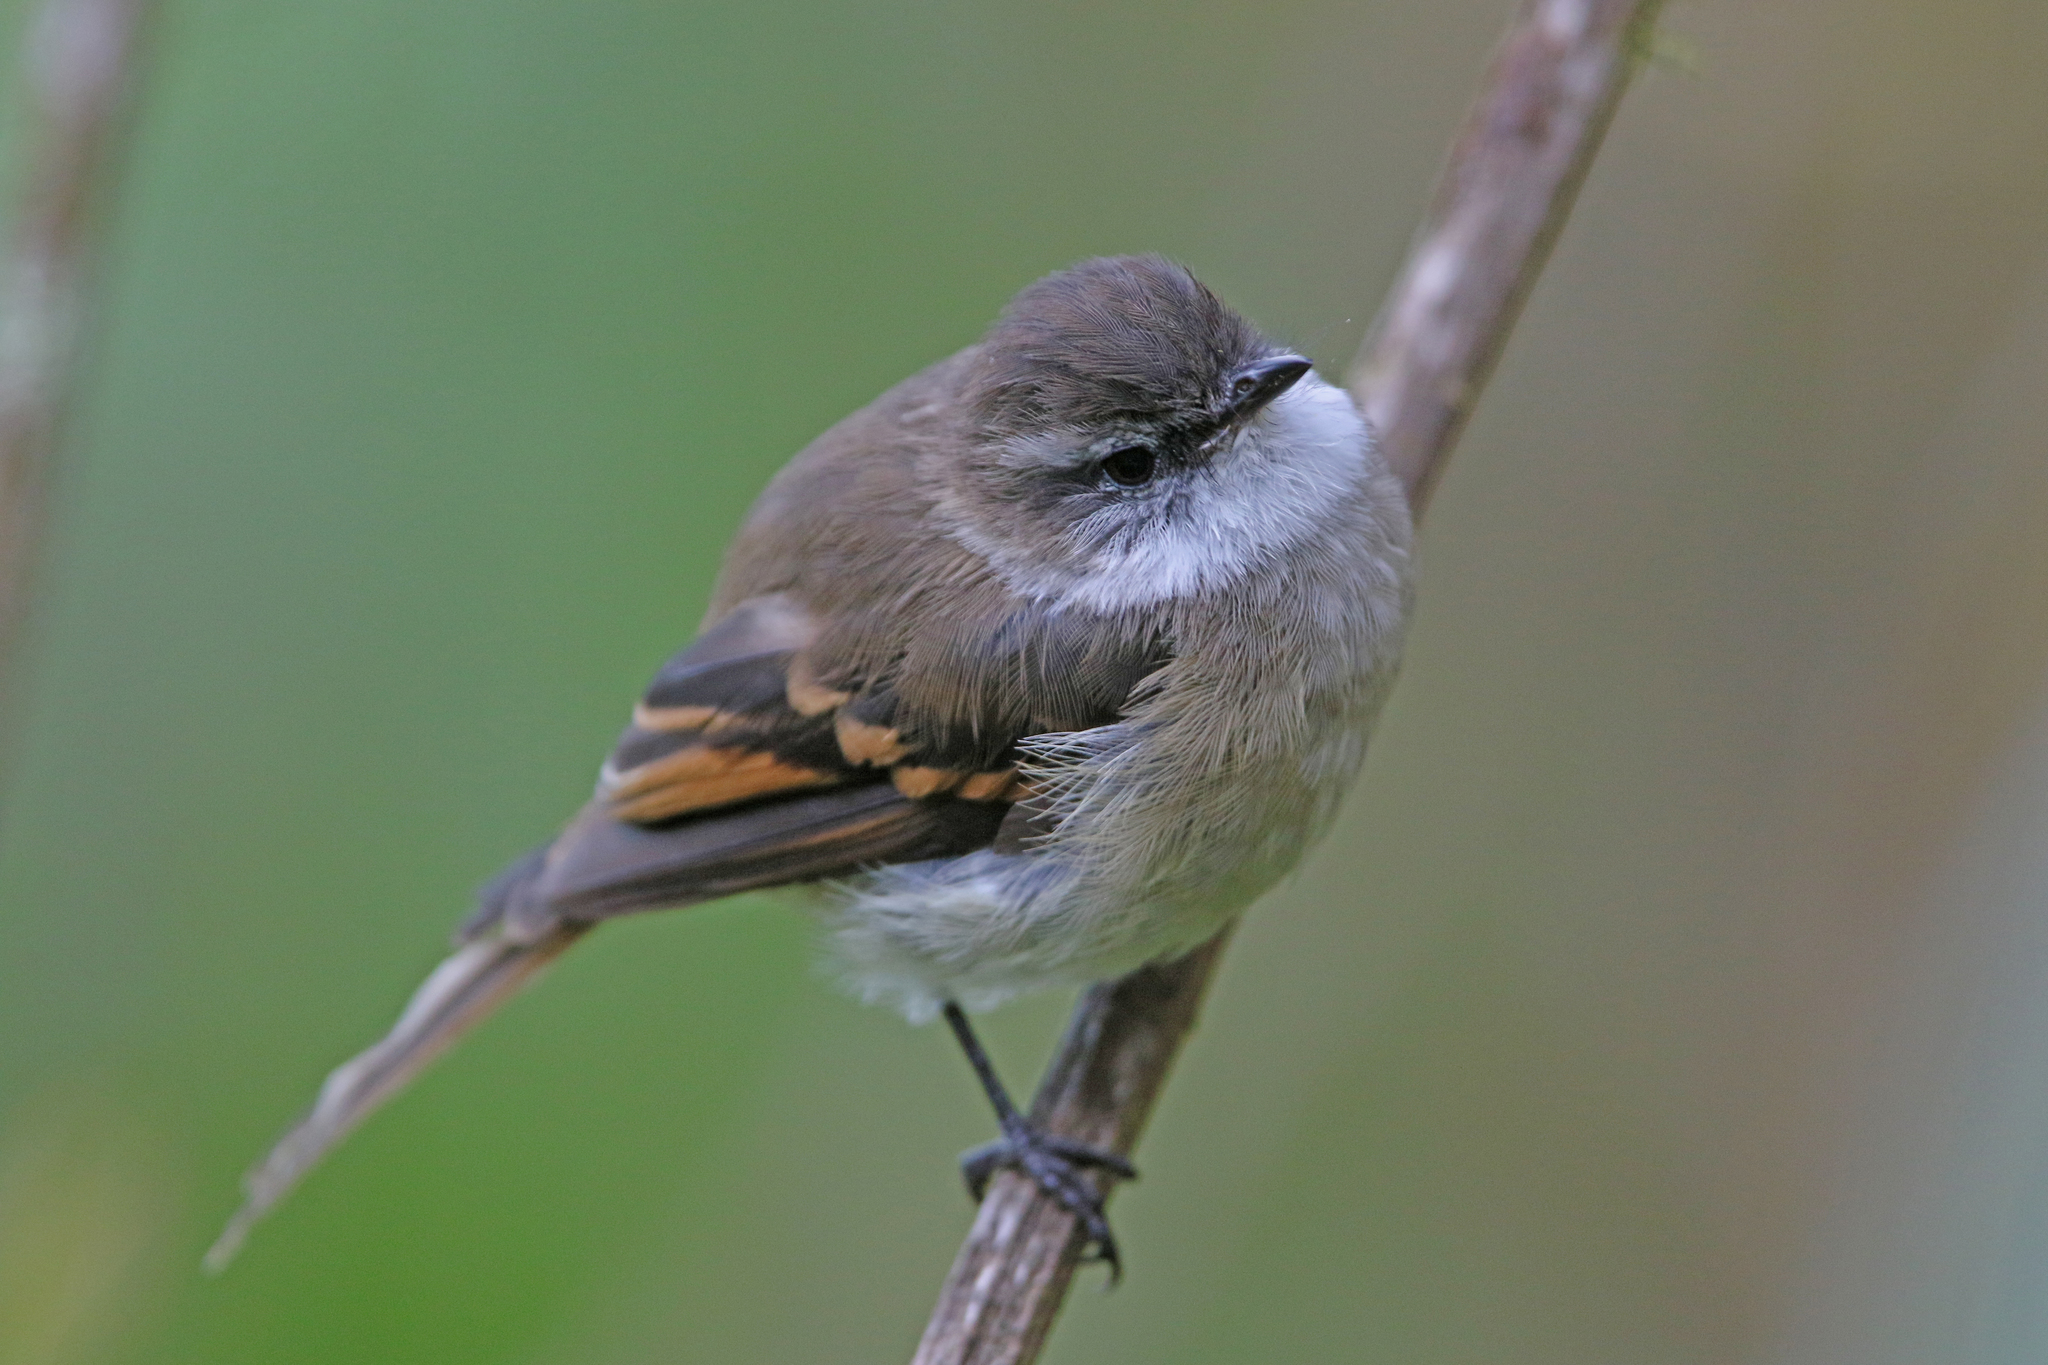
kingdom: Animalia
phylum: Chordata
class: Aves
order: Passeriformes
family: Tyrannidae
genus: Mecocerculus
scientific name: Mecocerculus leucophrys
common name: White-throated tyrannulet
